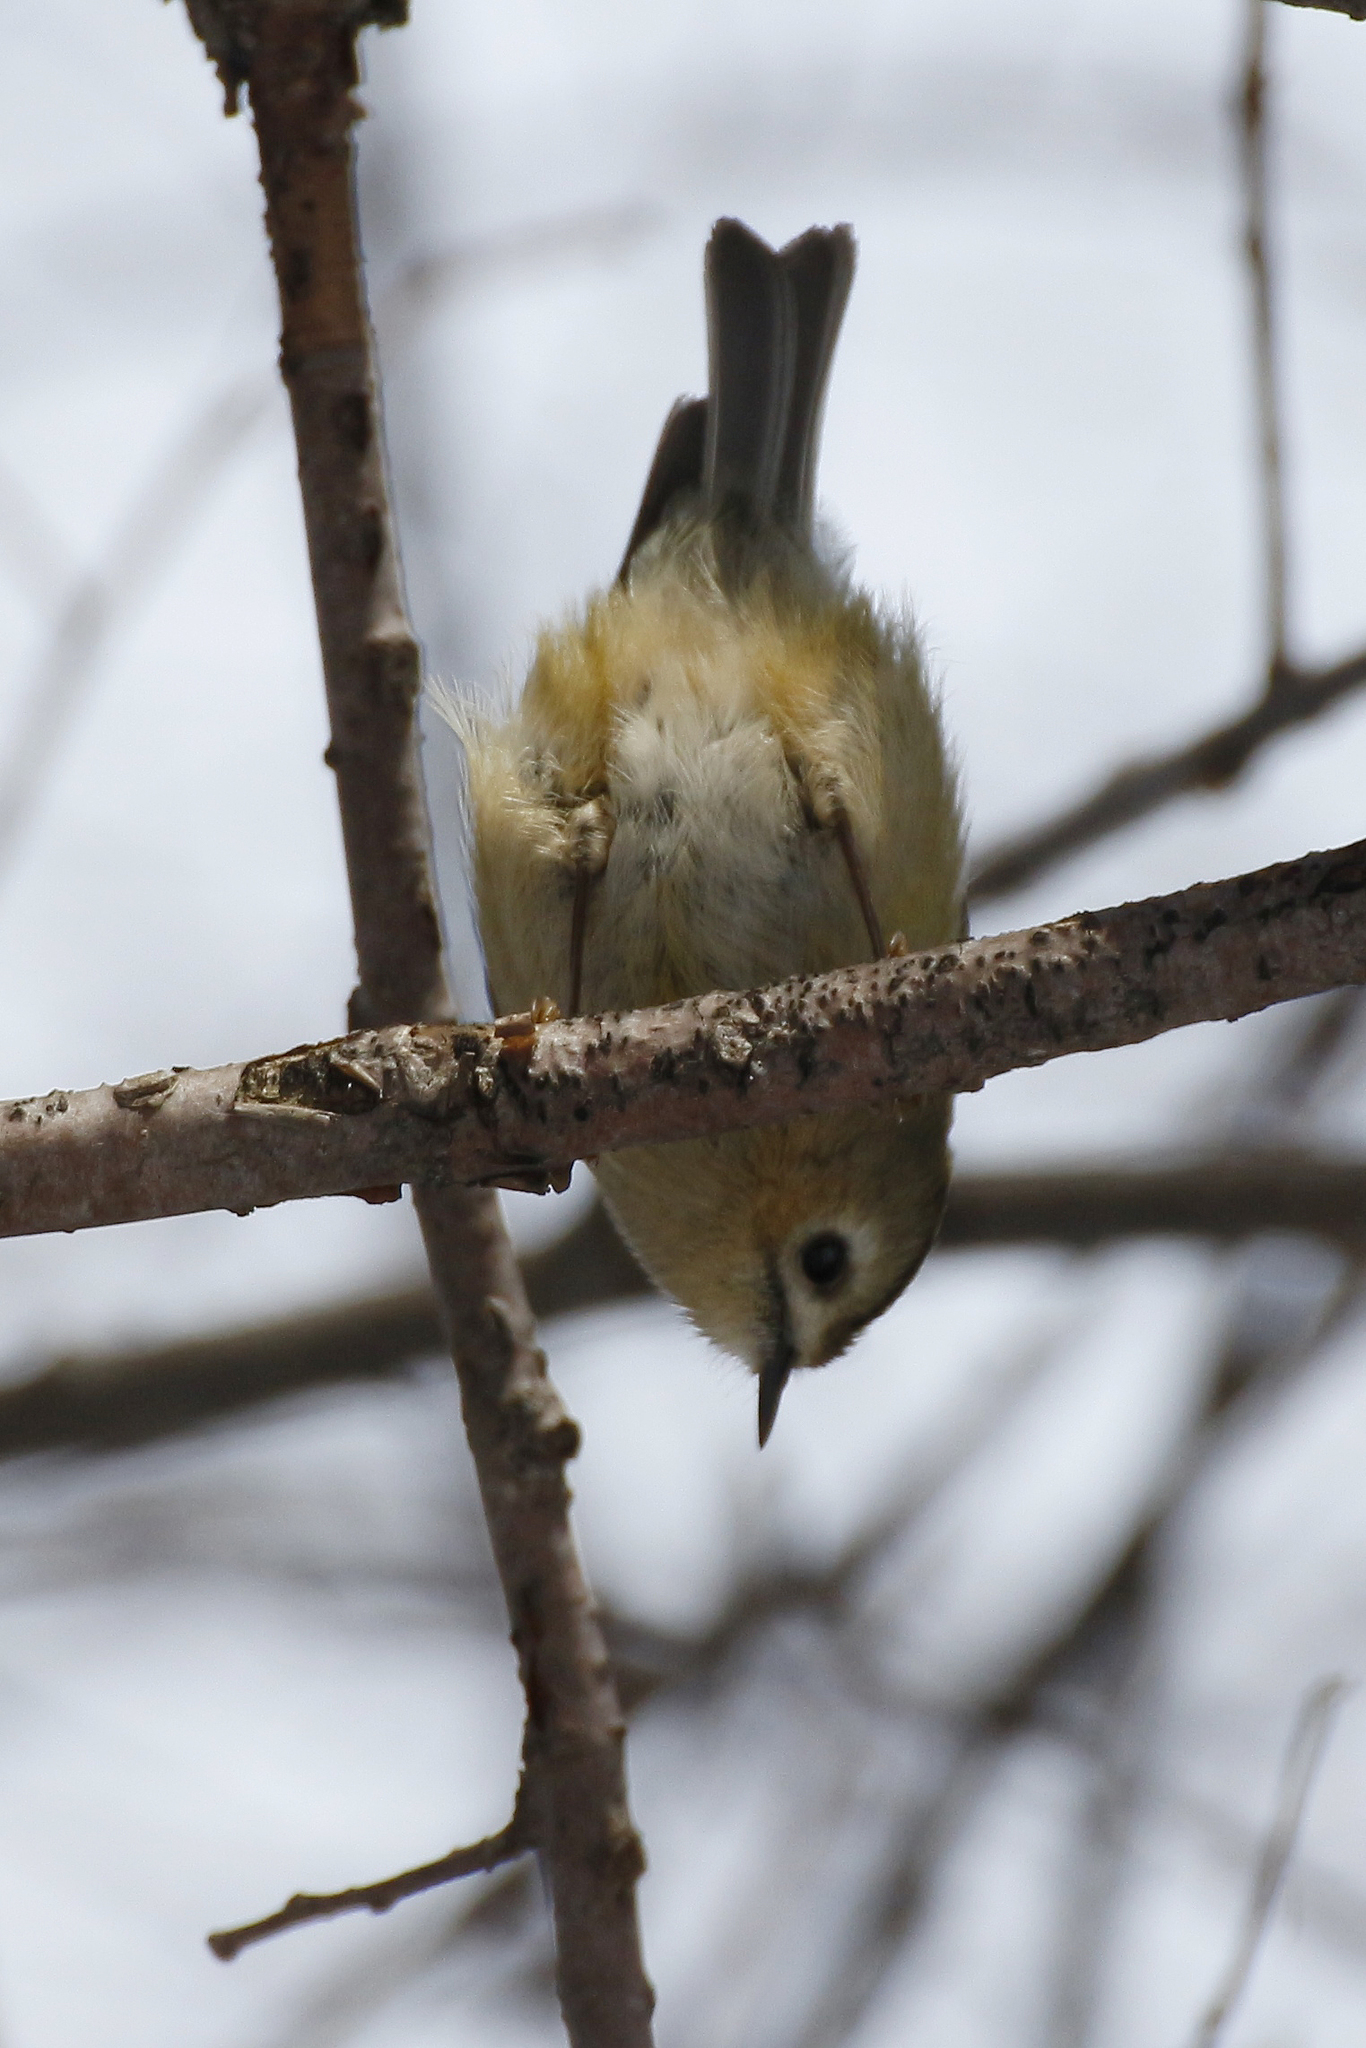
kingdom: Animalia
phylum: Chordata
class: Aves
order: Passeriformes
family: Regulidae
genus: Regulus
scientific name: Regulus regulus
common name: Goldcrest
